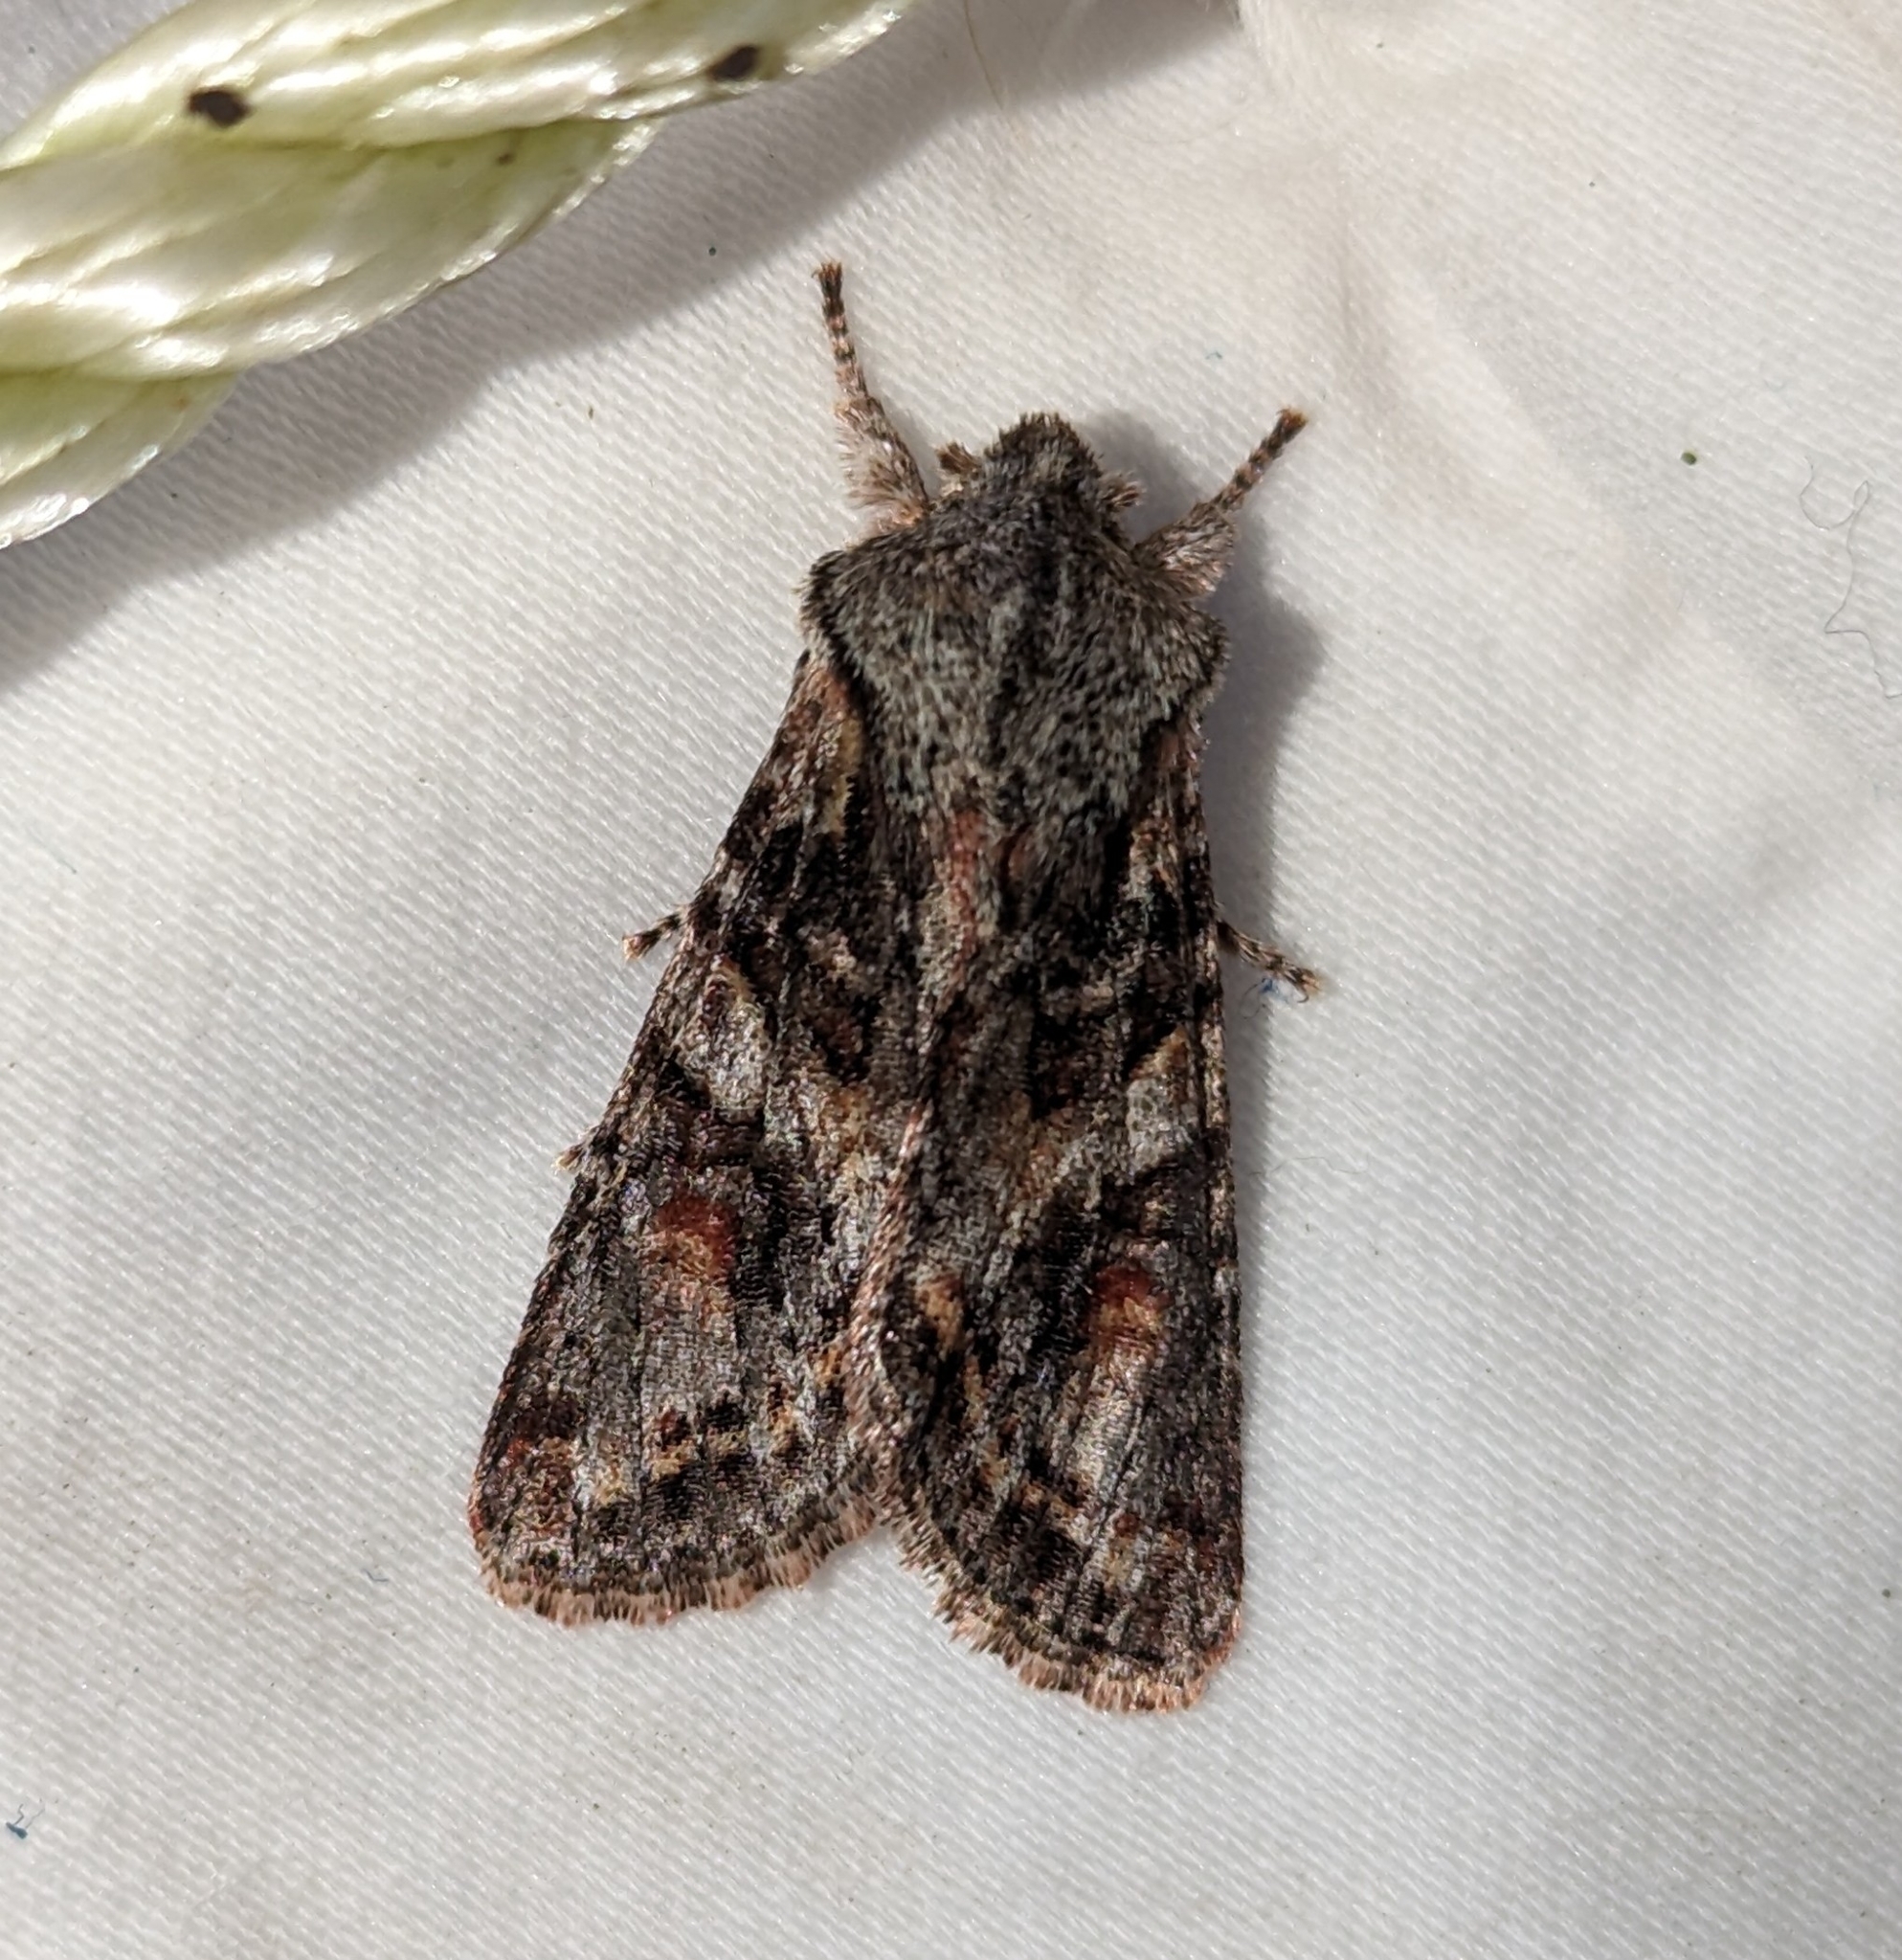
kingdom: Animalia
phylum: Arthropoda
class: Insecta
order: Lepidoptera
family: Noctuidae
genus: Egira
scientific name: Egira hiemalis
